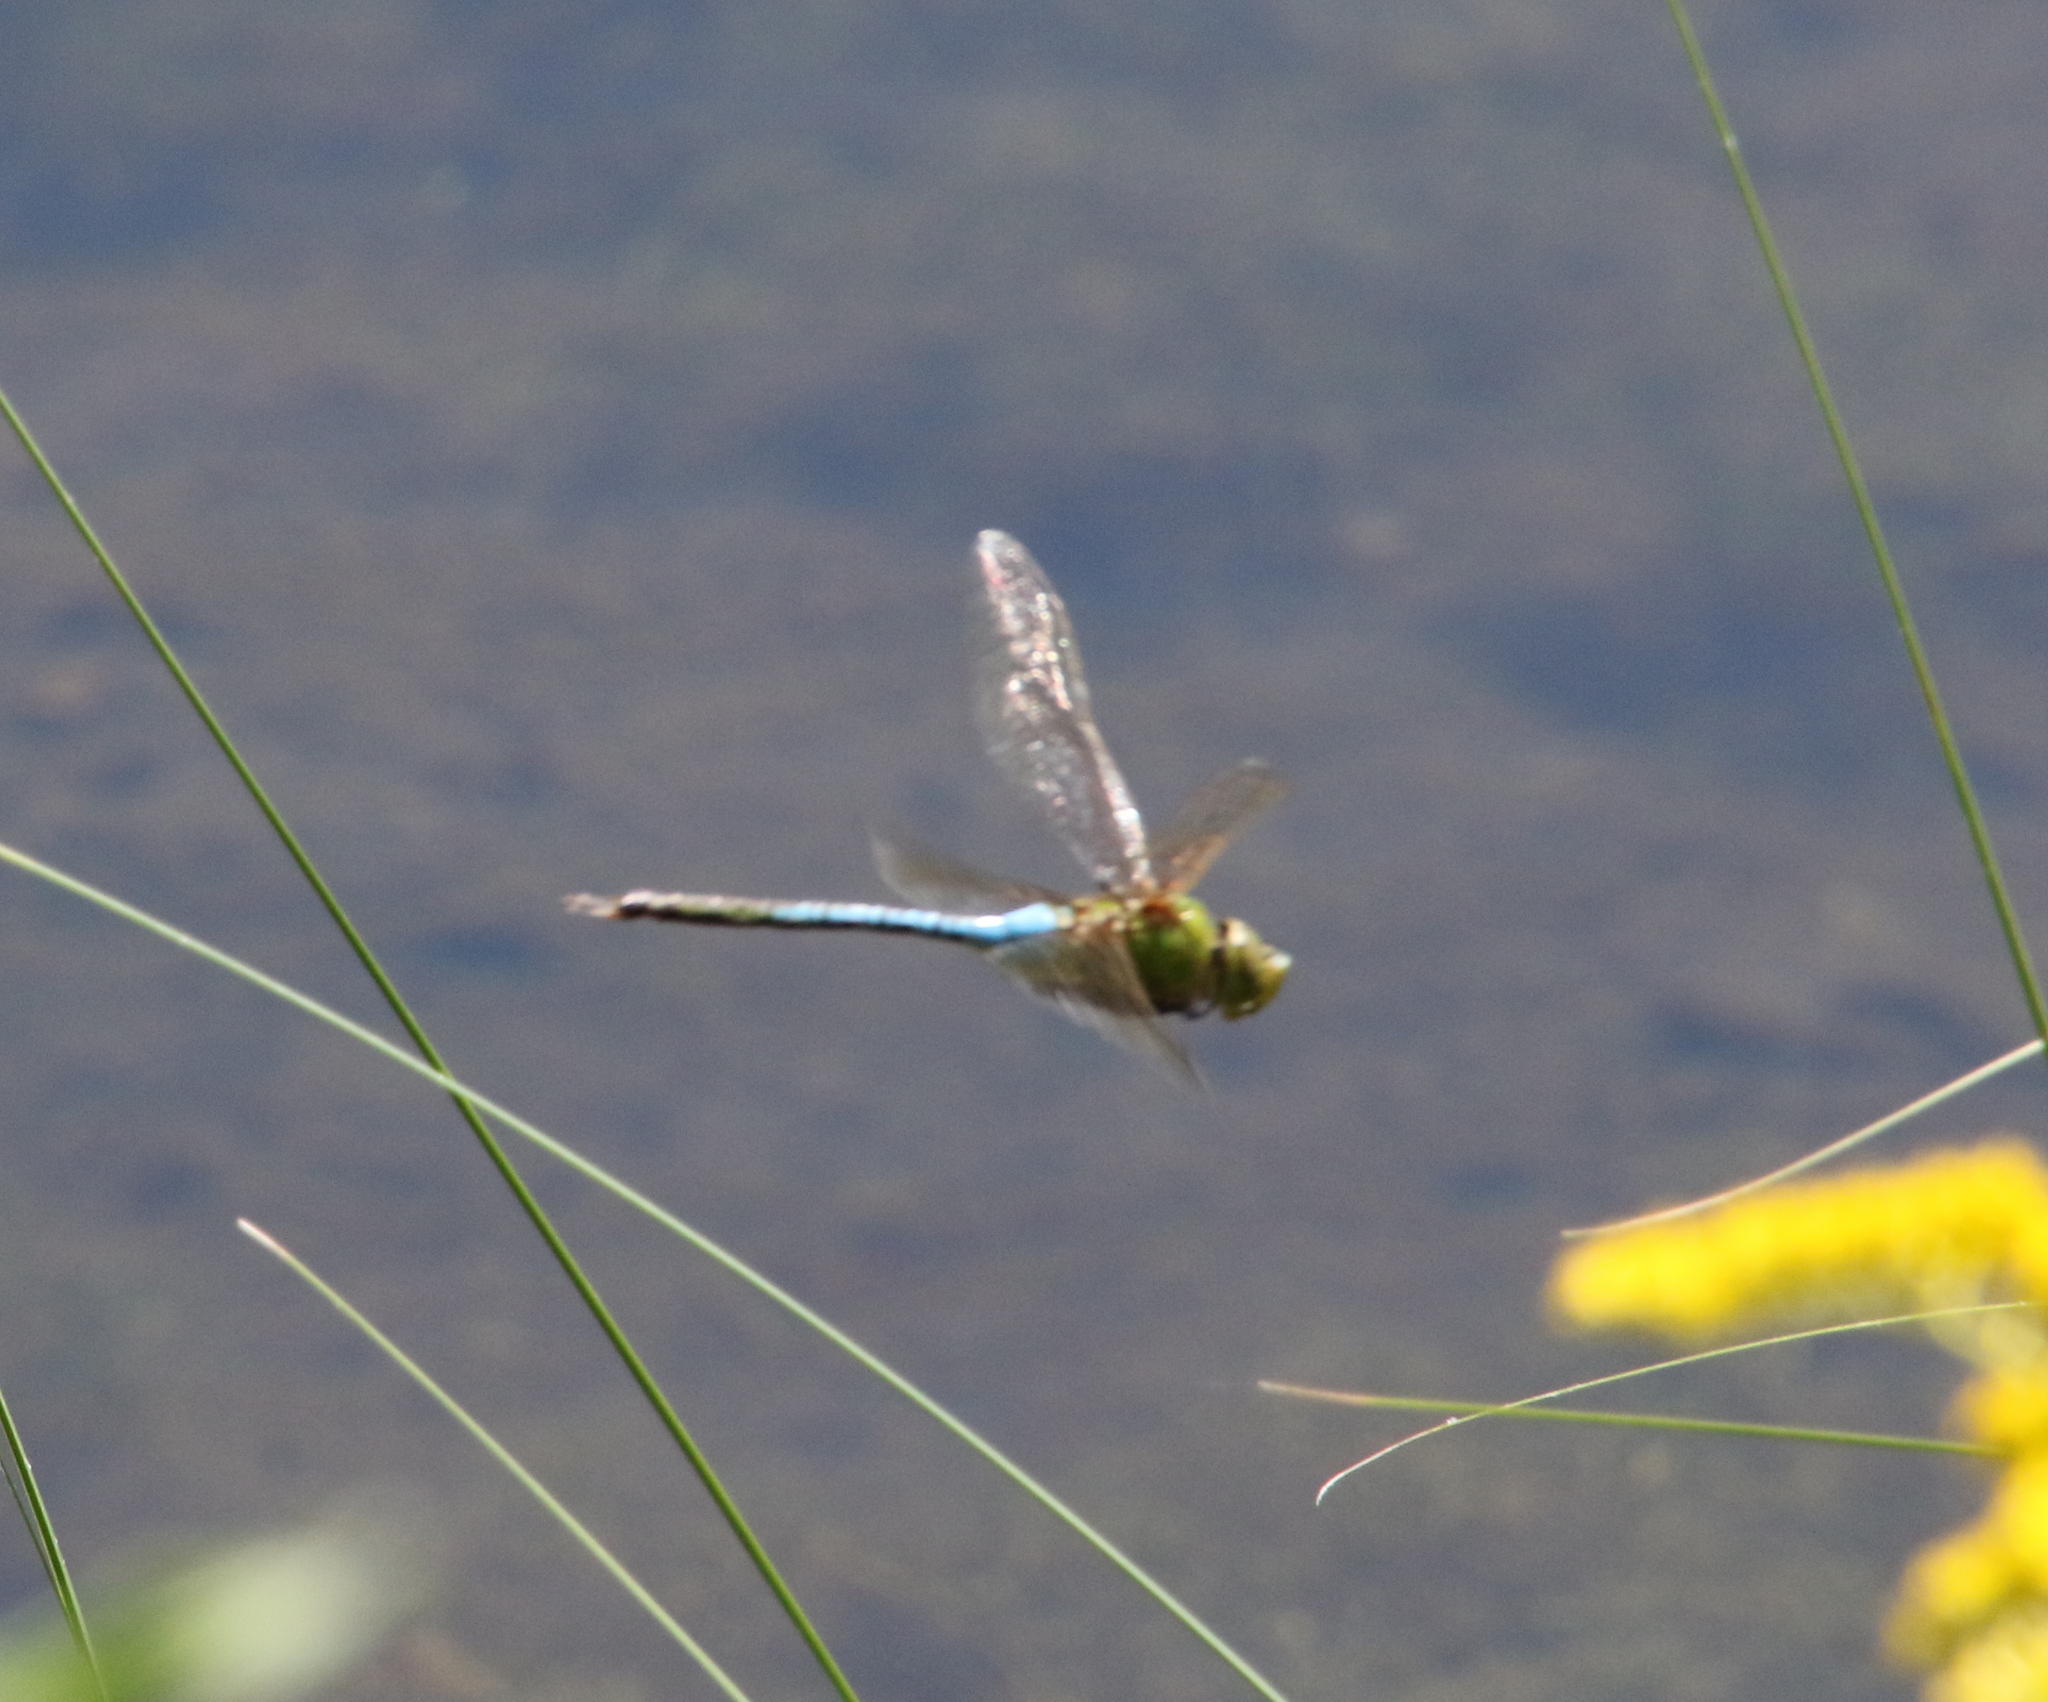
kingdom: Animalia
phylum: Arthropoda
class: Insecta
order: Odonata
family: Aeshnidae
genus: Anax
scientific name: Anax junius
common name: Common green darner
